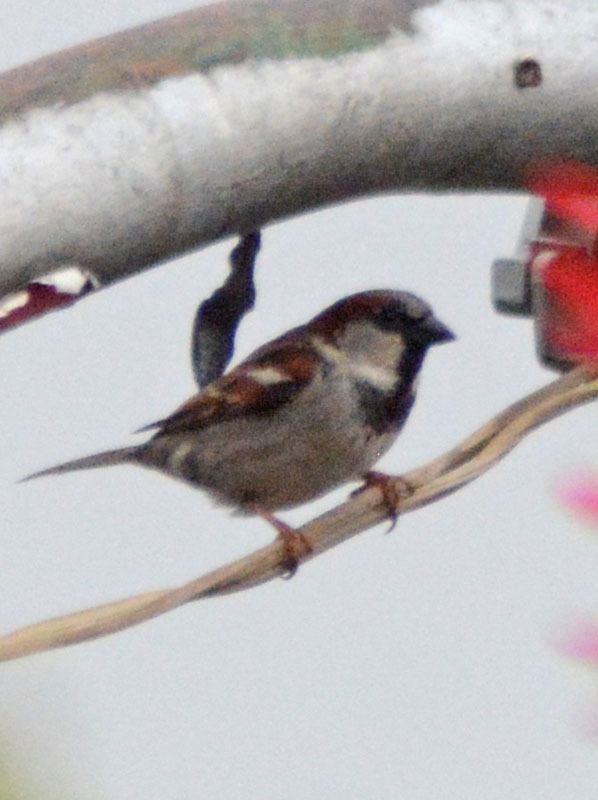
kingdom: Animalia
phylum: Chordata
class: Aves
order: Passeriformes
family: Passeridae
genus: Passer
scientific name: Passer domesticus
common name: House sparrow
